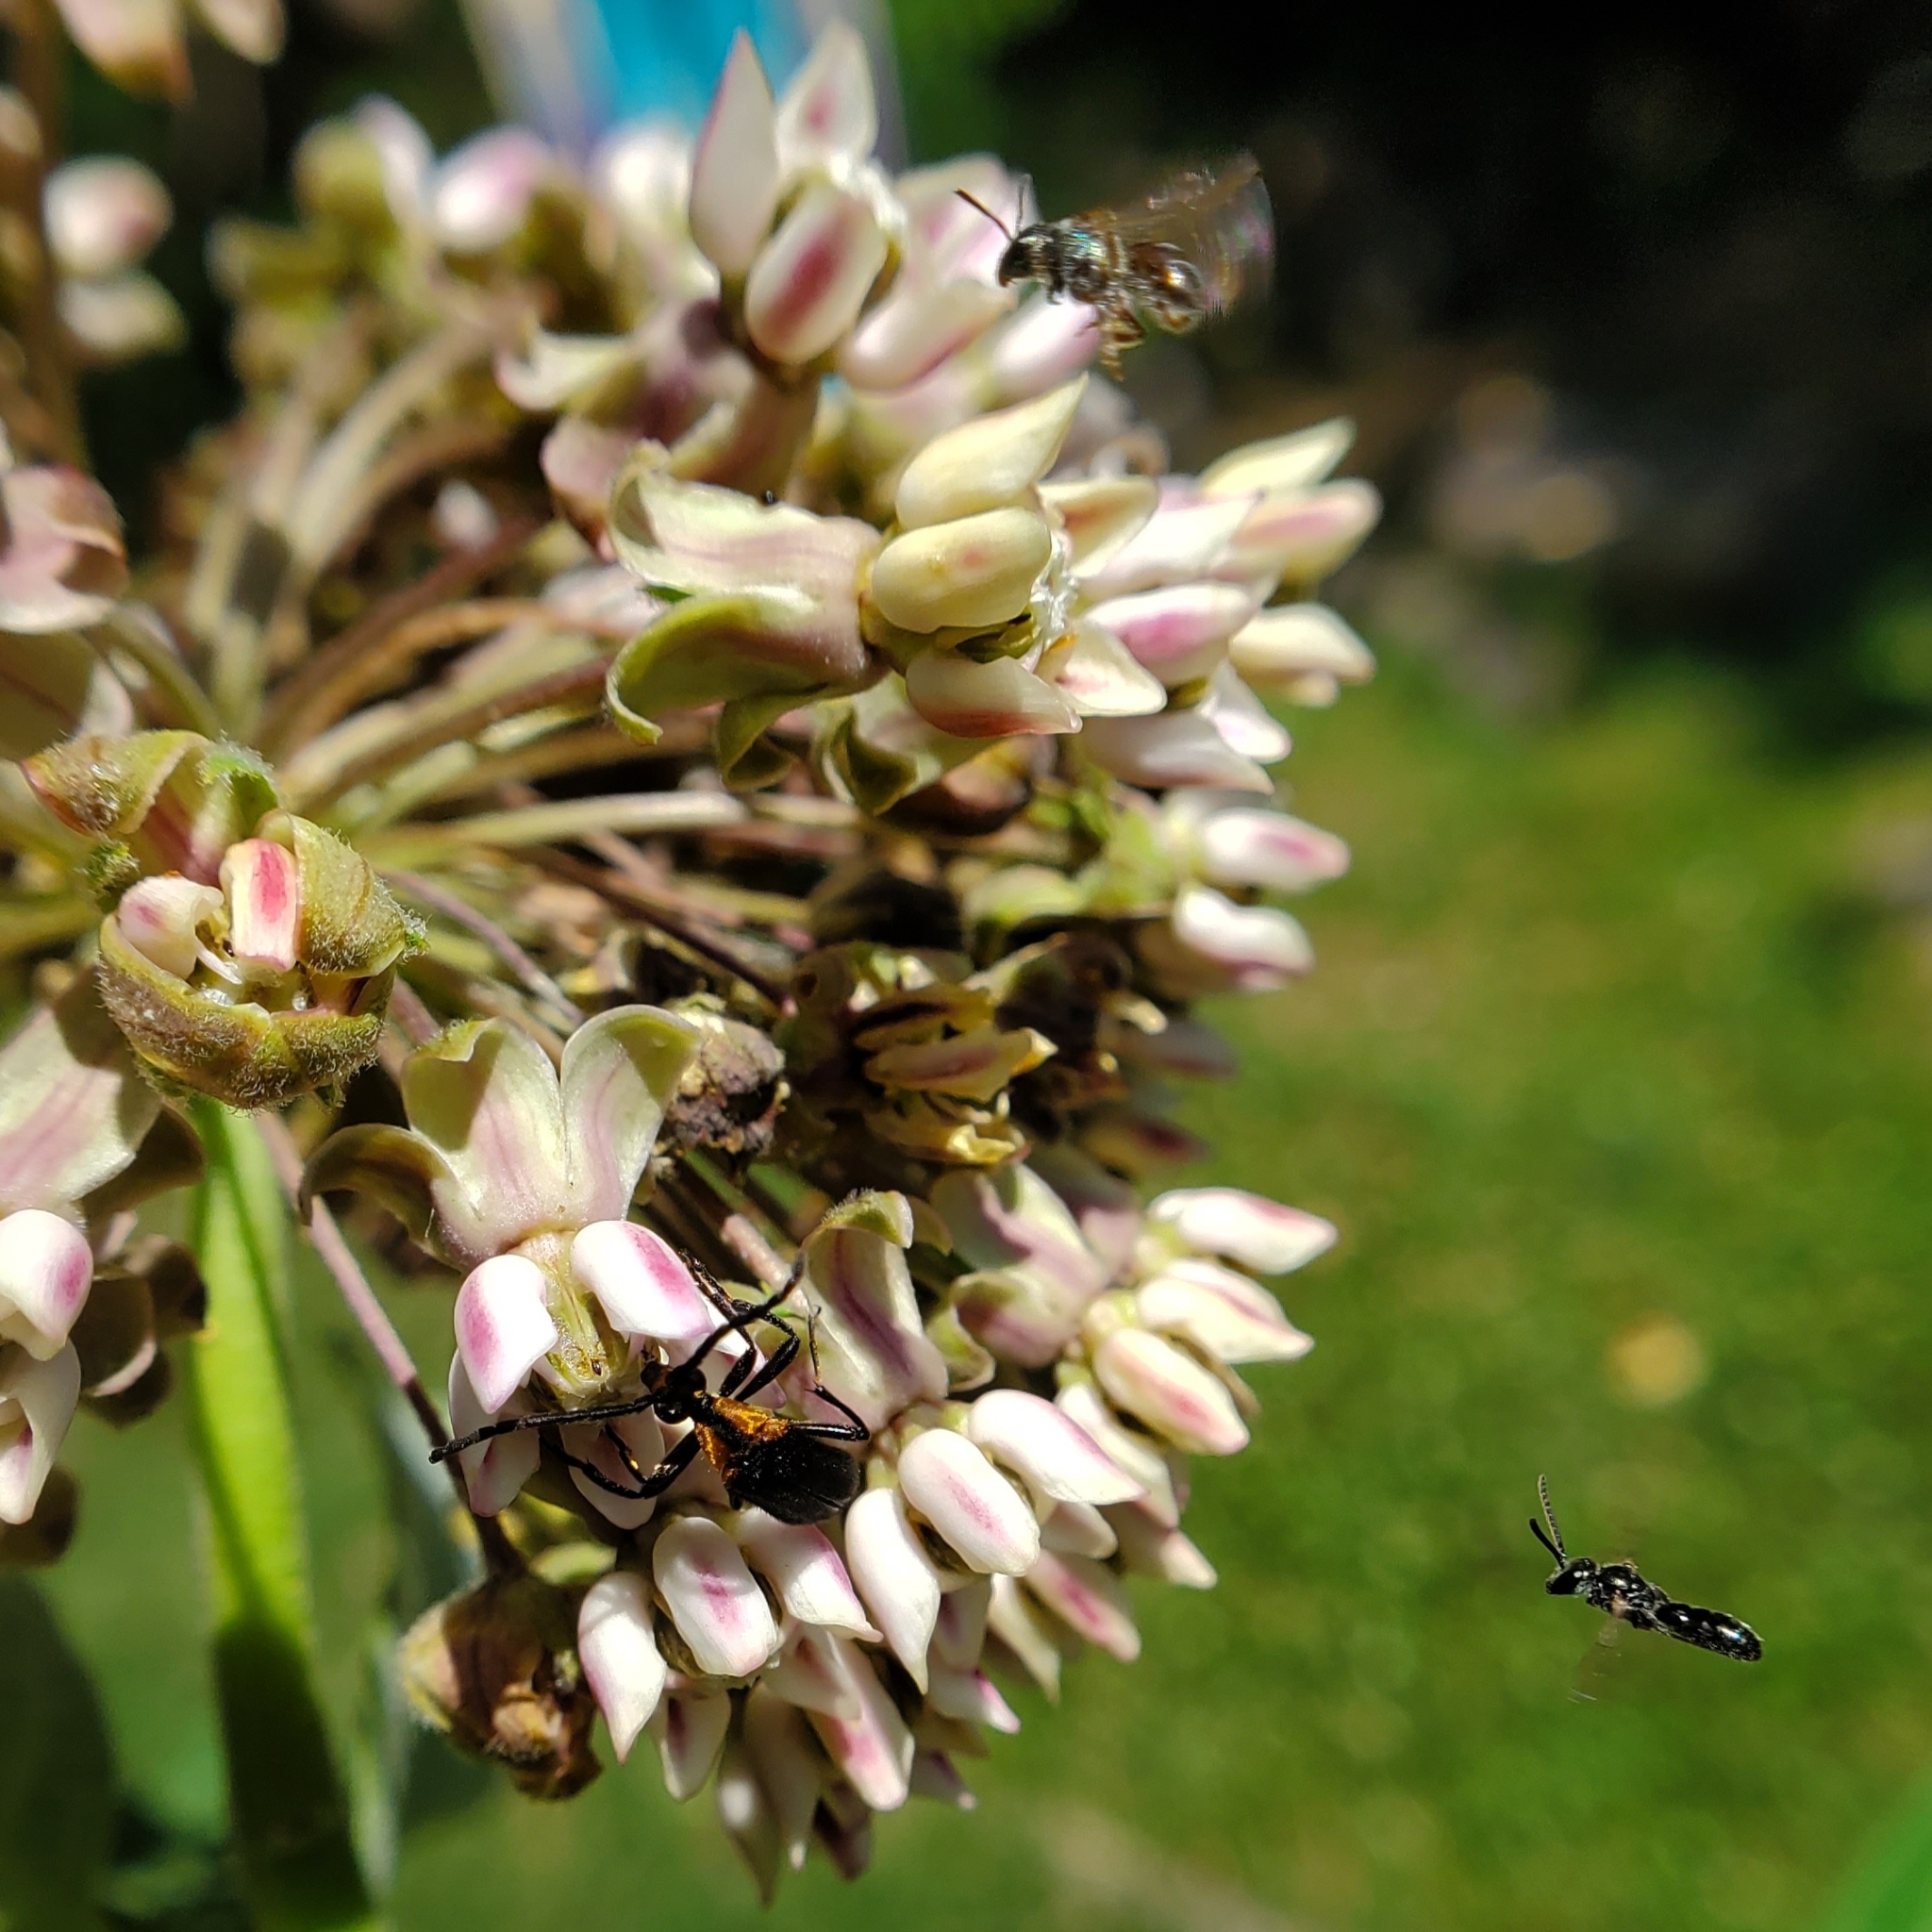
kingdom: Animalia
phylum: Arthropoda
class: Insecta
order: Coleoptera
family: Cerambycidae
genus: Lycochoriolaus
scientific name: Lycochoriolaus lateralis
